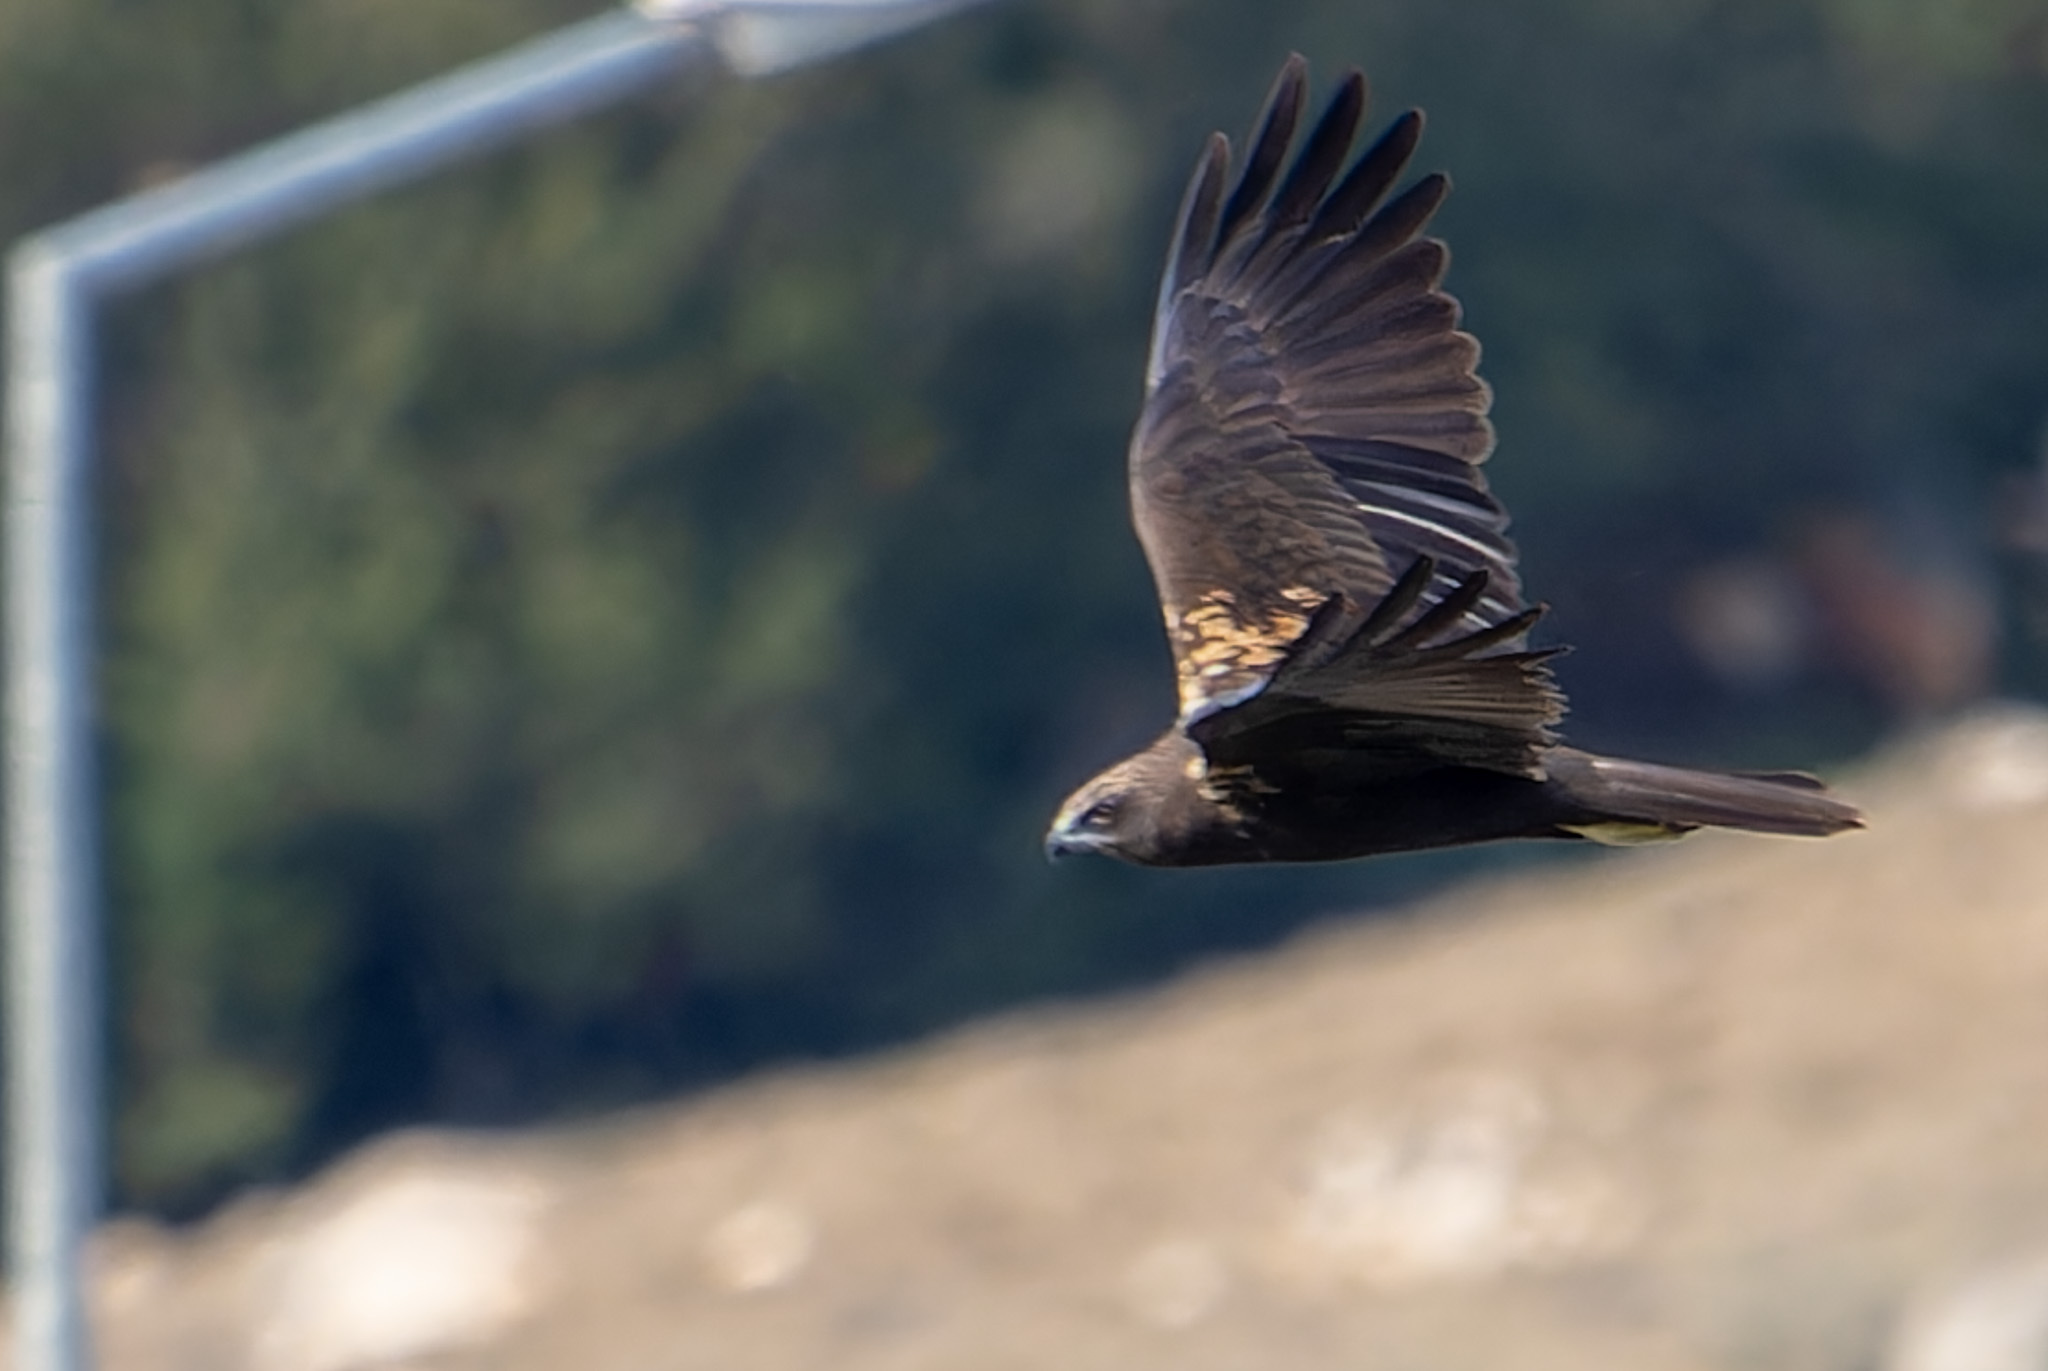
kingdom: Animalia
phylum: Chordata
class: Aves
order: Accipitriformes
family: Accipitridae
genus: Circus
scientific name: Circus aeruginosus
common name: Western marsh harrier
